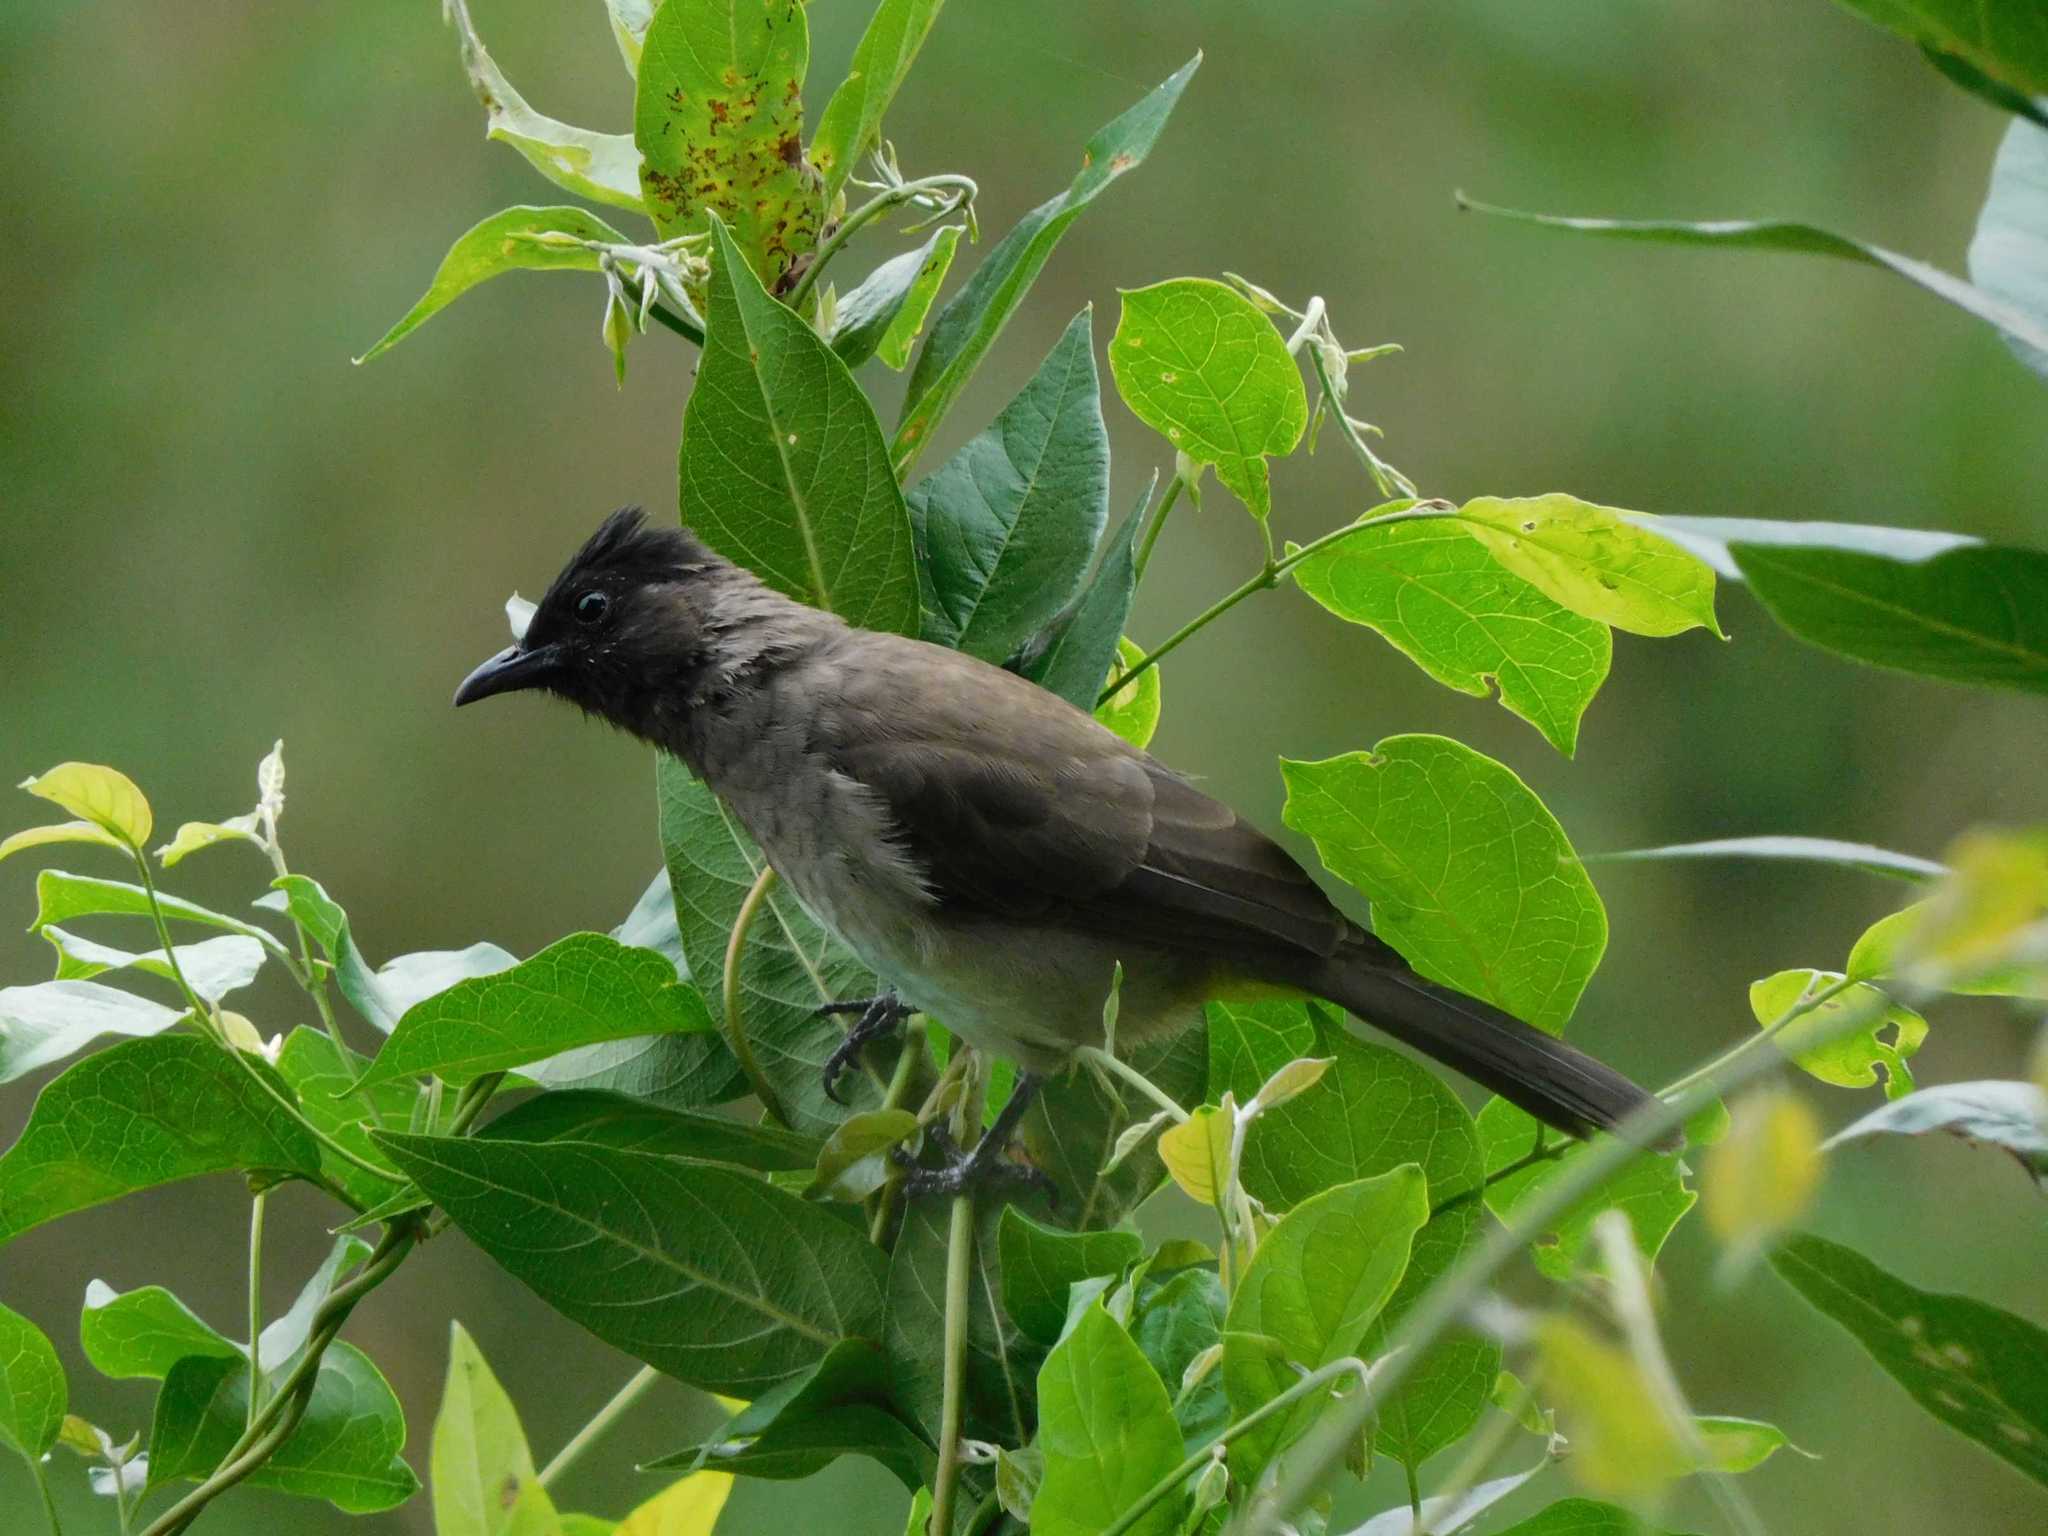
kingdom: Animalia
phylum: Chordata
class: Aves
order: Passeriformes
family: Pycnonotidae
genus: Pycnonotus
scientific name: Pycnonotus barbatus
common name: Common bulbul
